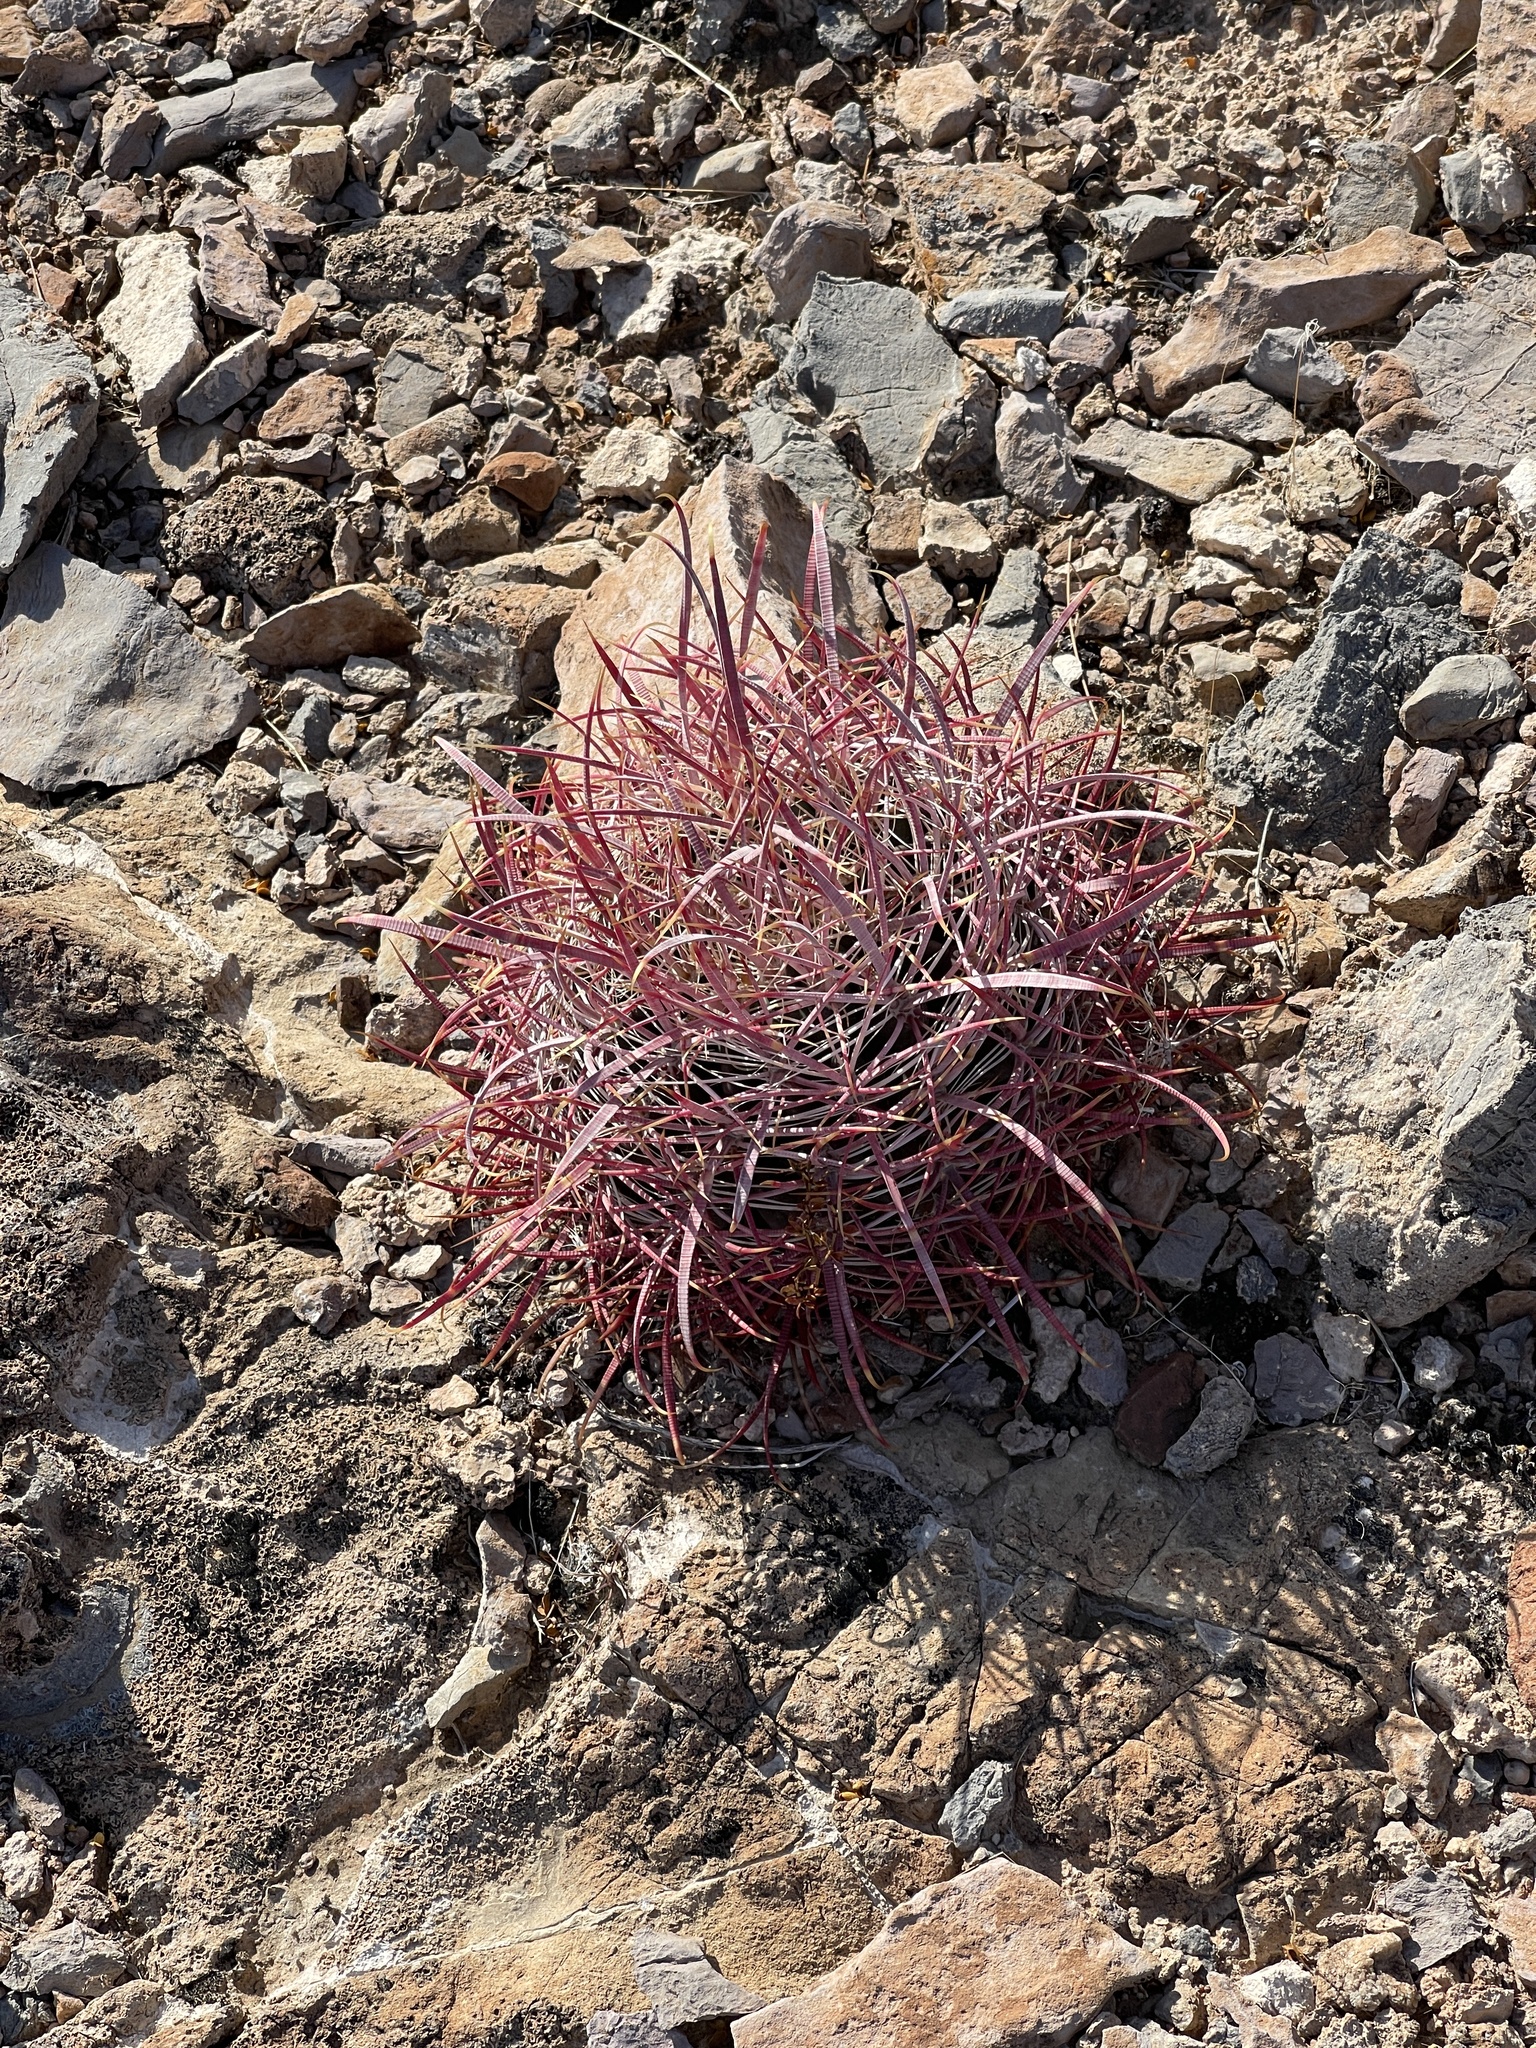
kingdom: Plantae
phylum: Tracheophyta
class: Magnoliopsida
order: Caryophyllales
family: Cactaceae
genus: Ferocactus
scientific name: Ferocactus cylindraceus
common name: California barrel cactus
